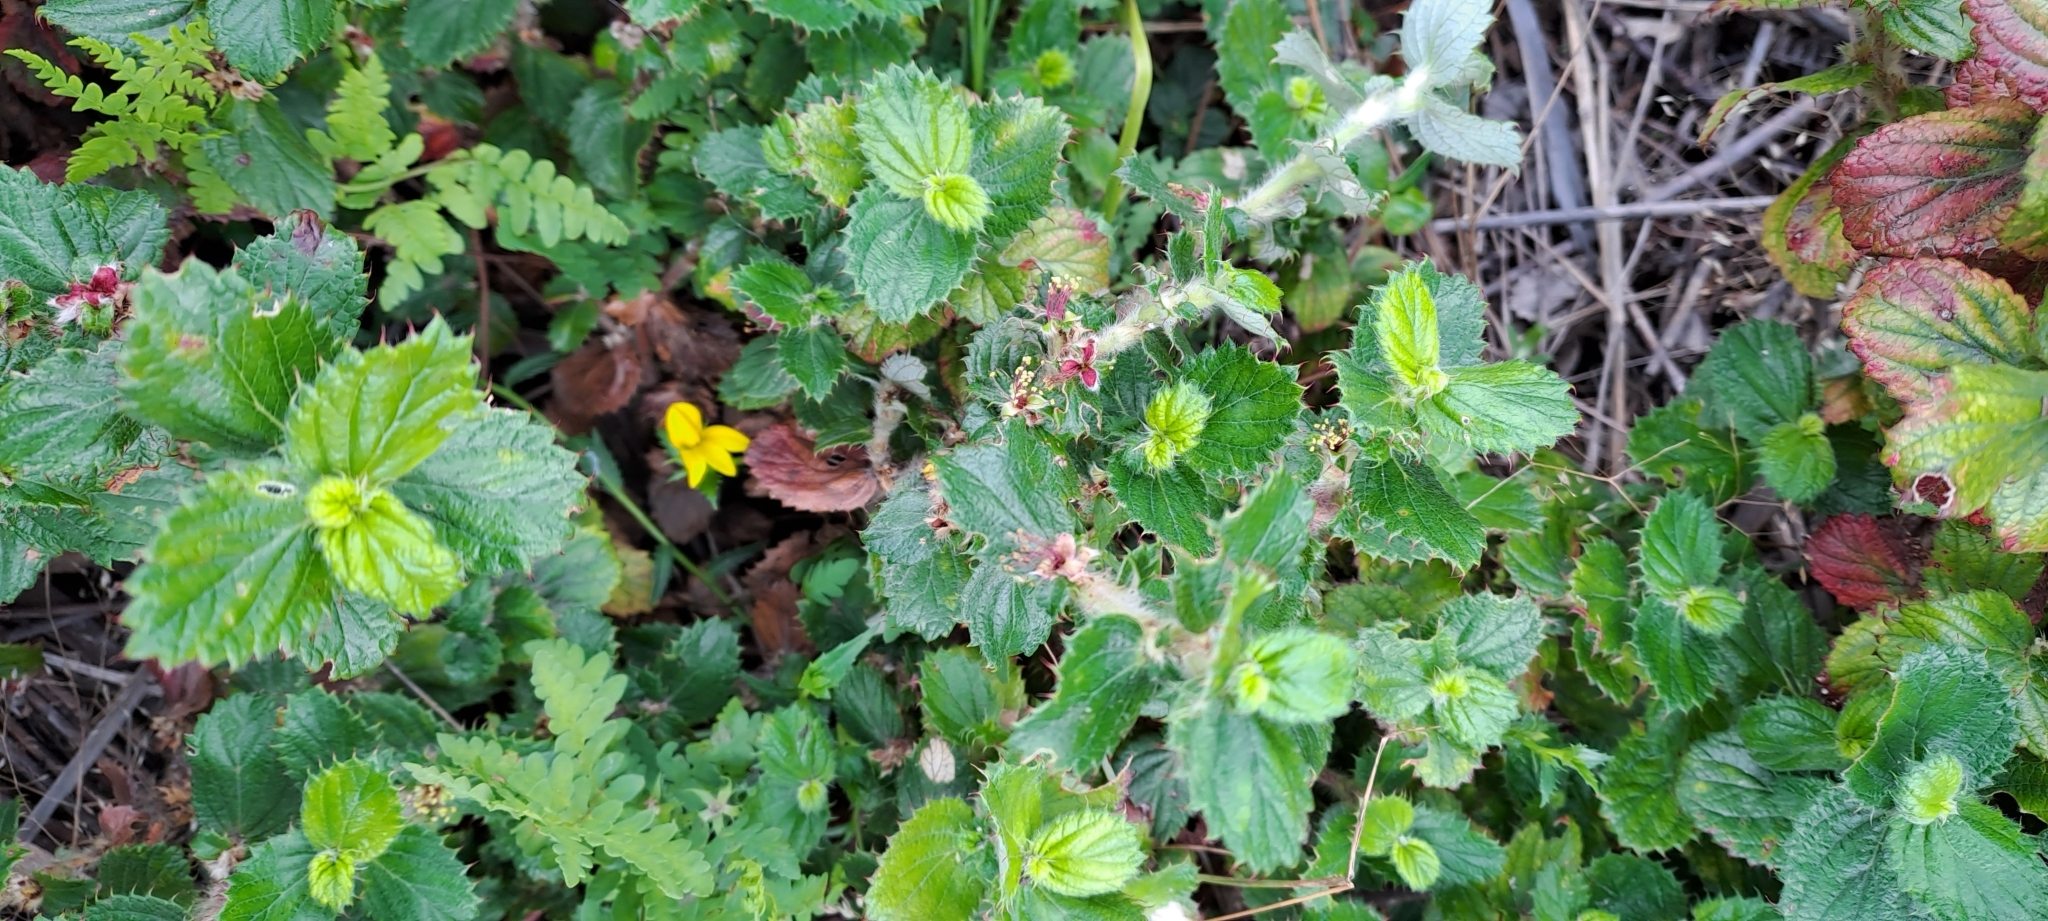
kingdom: Plantae
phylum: Tracheophyta
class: Magnoliopsida
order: Rosales
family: Rosaceae
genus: Cliffortia
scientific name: Cliffortia hirsuta
